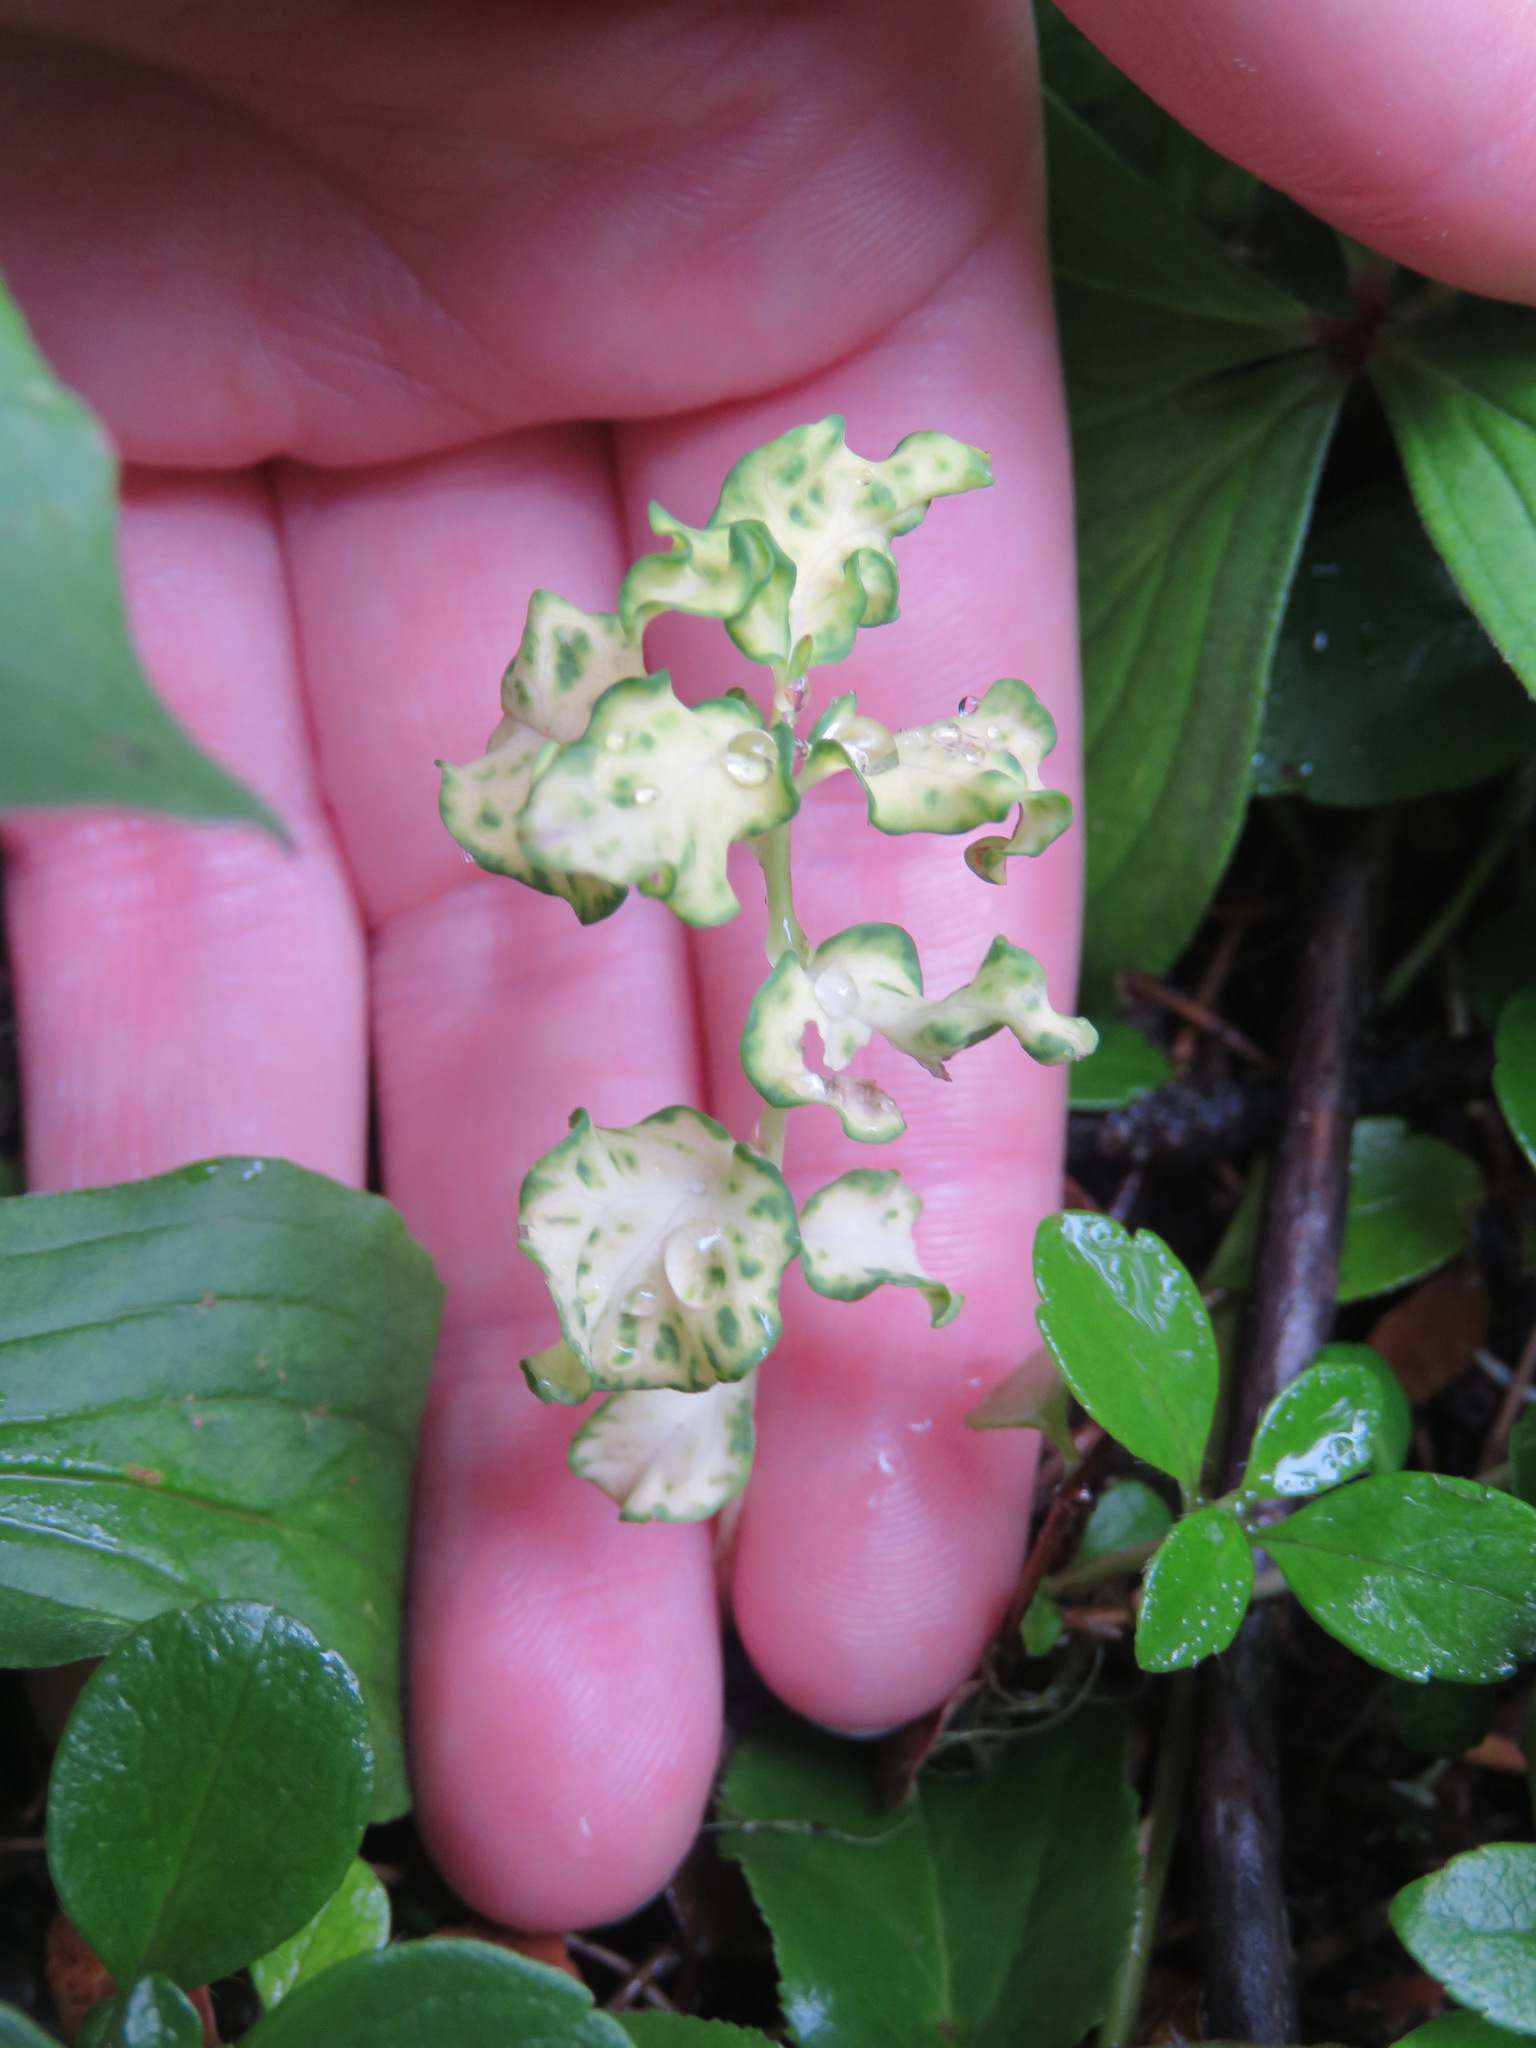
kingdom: Plantae
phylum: Tracheophyta
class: Magnoliopsida
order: Santalales
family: Comandraceae
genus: Geocaulon
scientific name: Geocaulon lividum
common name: Earthberry
